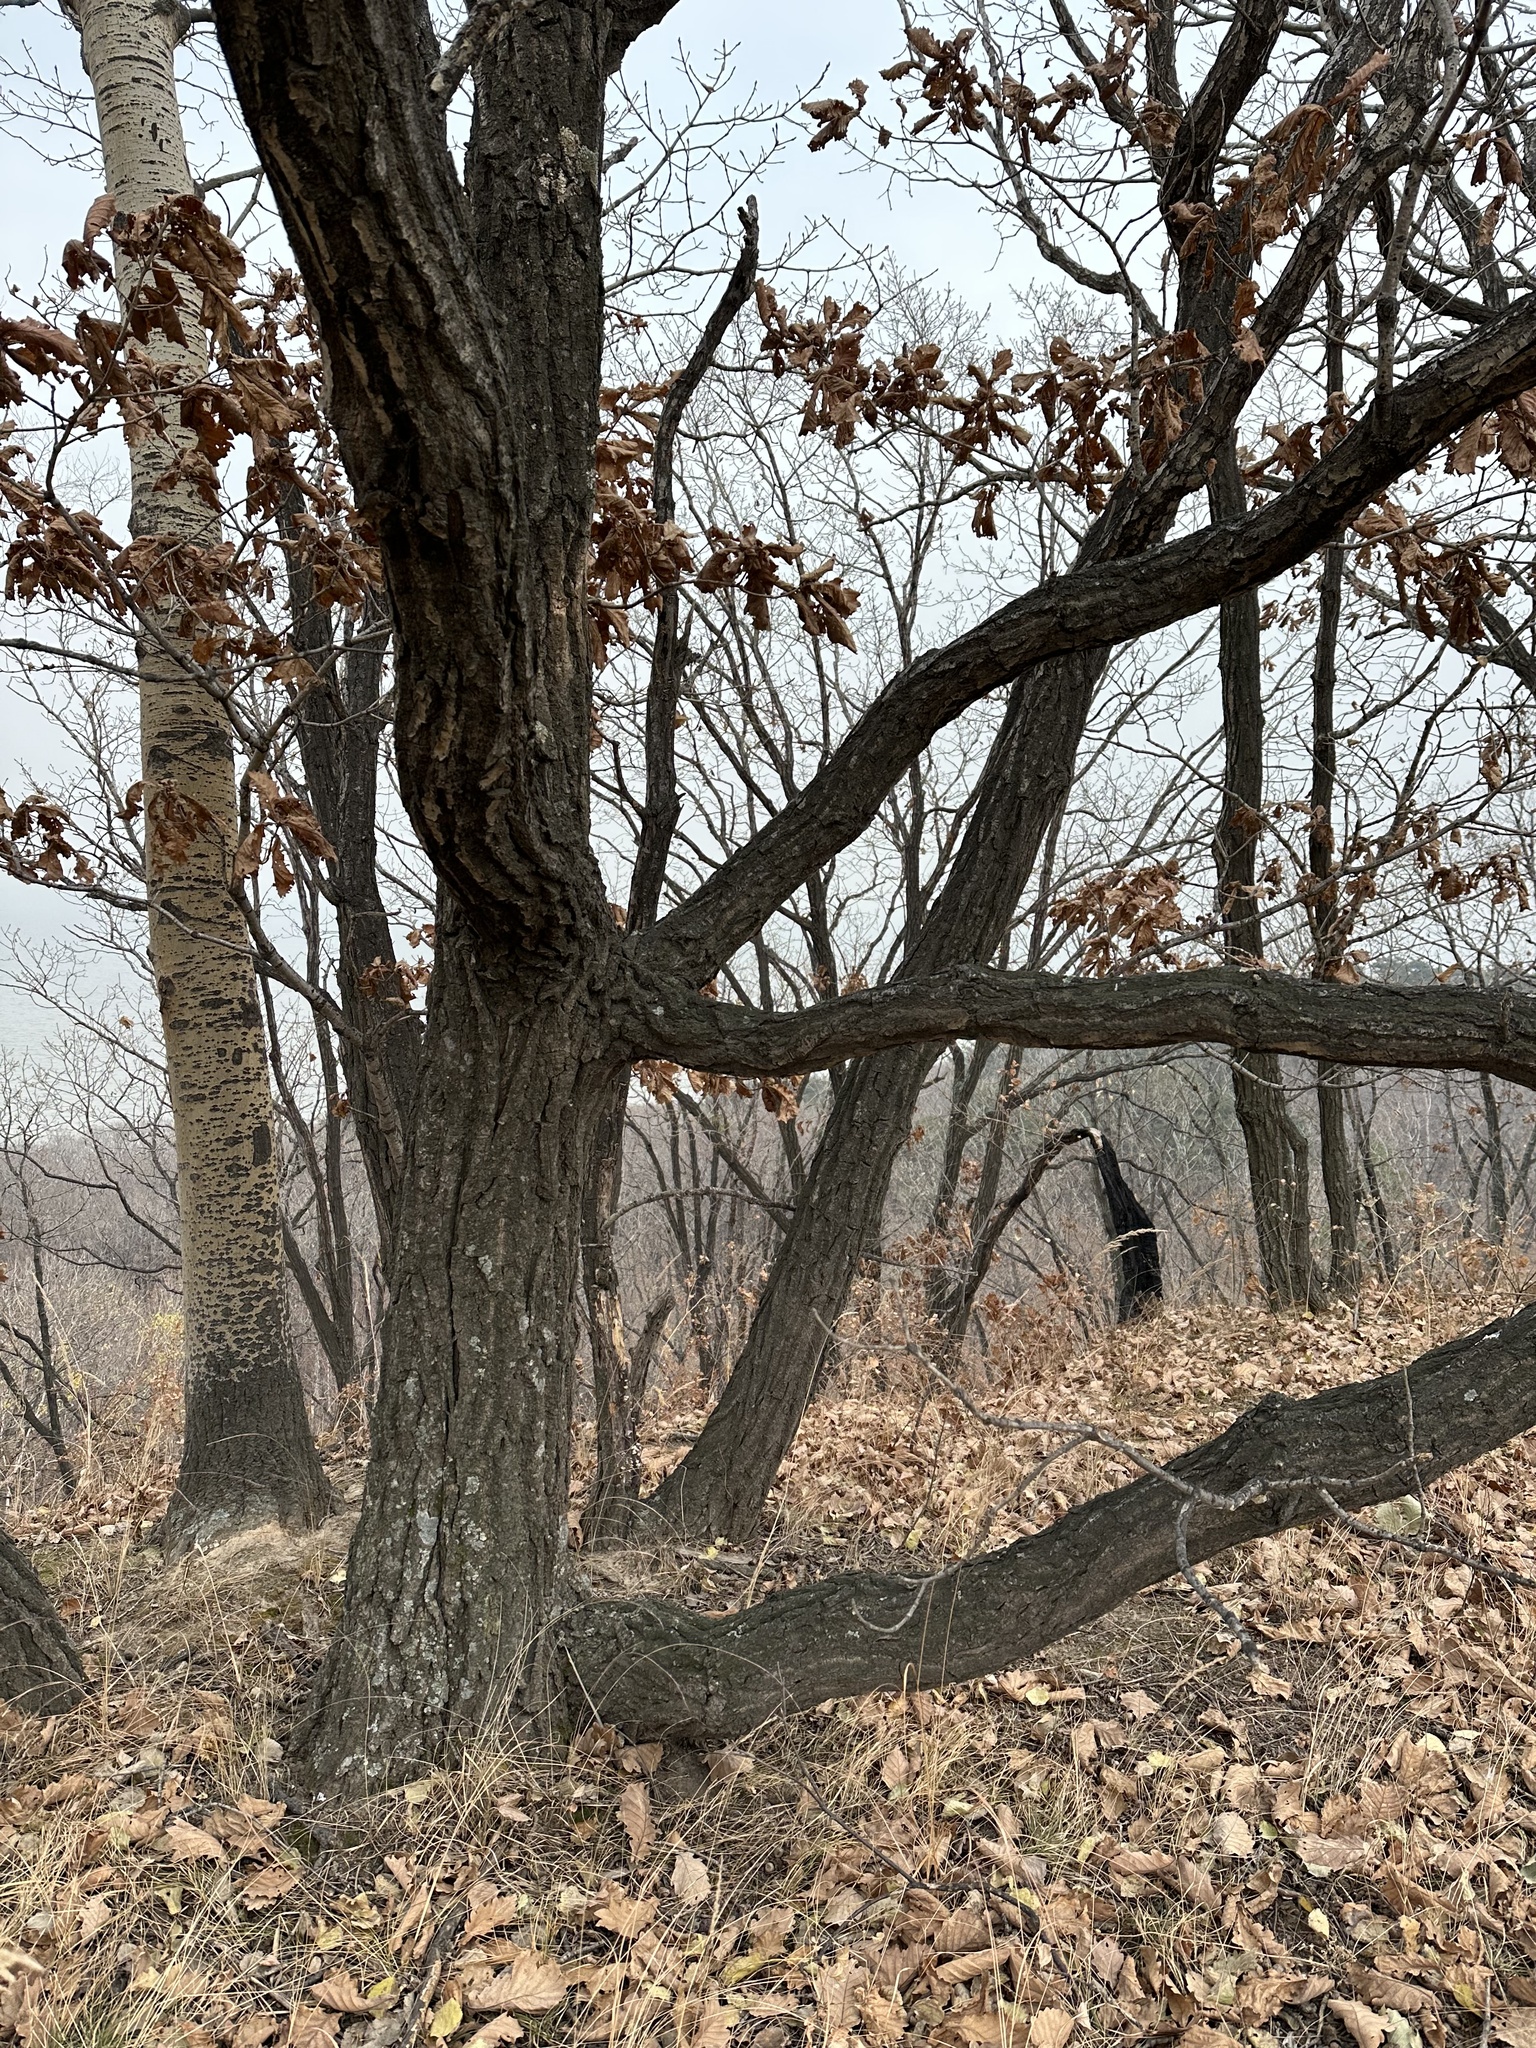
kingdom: Plantae
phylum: Tracheophyta
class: Magnoliopsida
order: Fagales
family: Fagaceae
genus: Quercus
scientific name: Quercus mongolica
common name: Mongolian oak
